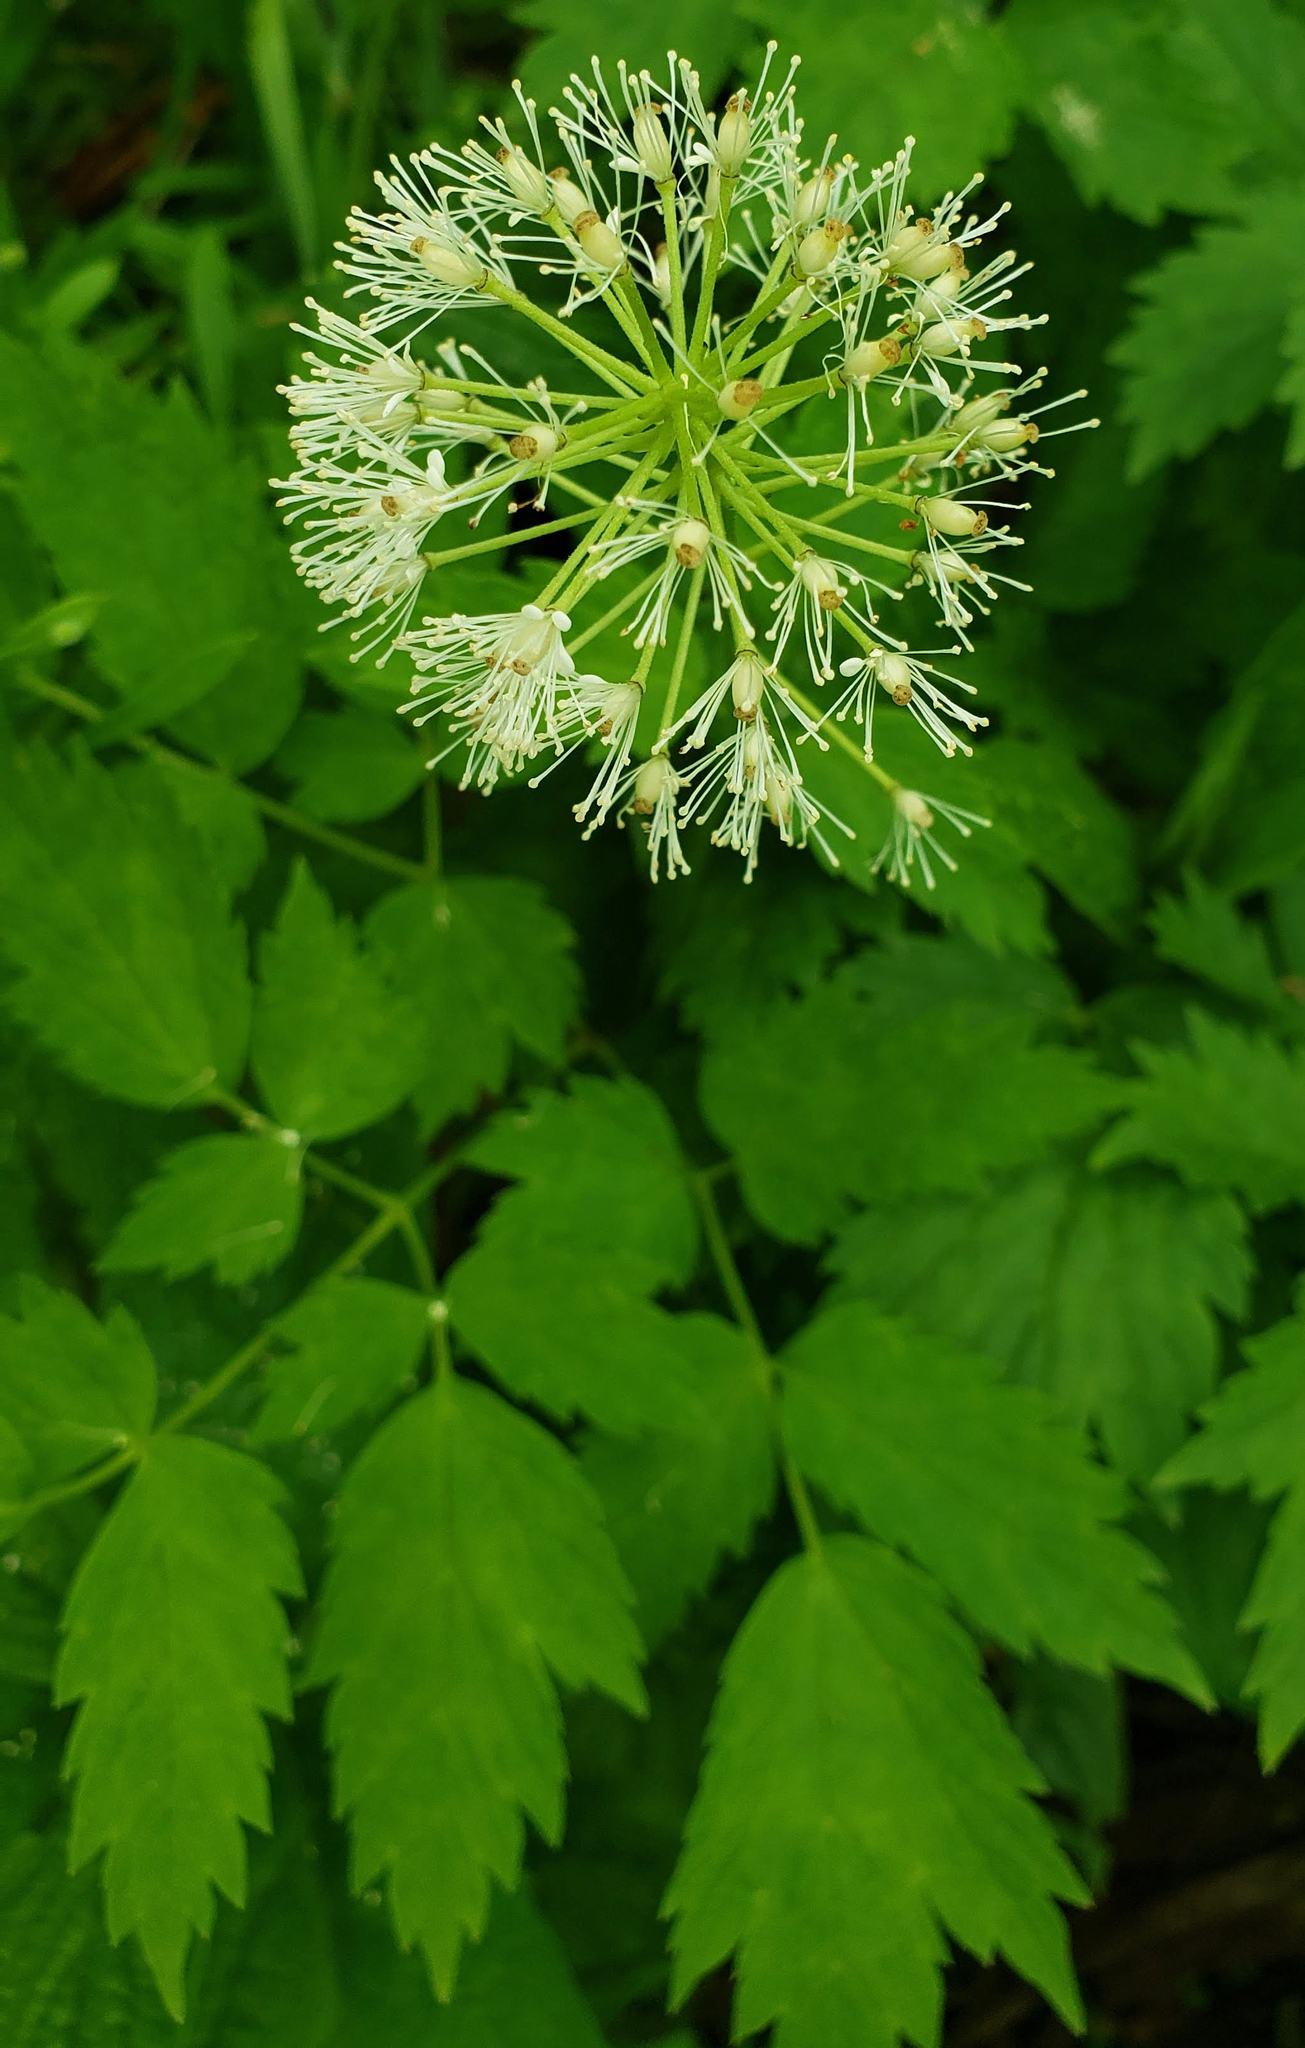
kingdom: Plantae
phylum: Tracheophyta
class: Magnoliopsida
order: Ranunculales
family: Ranunculaceae
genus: Actaea
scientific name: Actaea rubra
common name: Red baneberry
